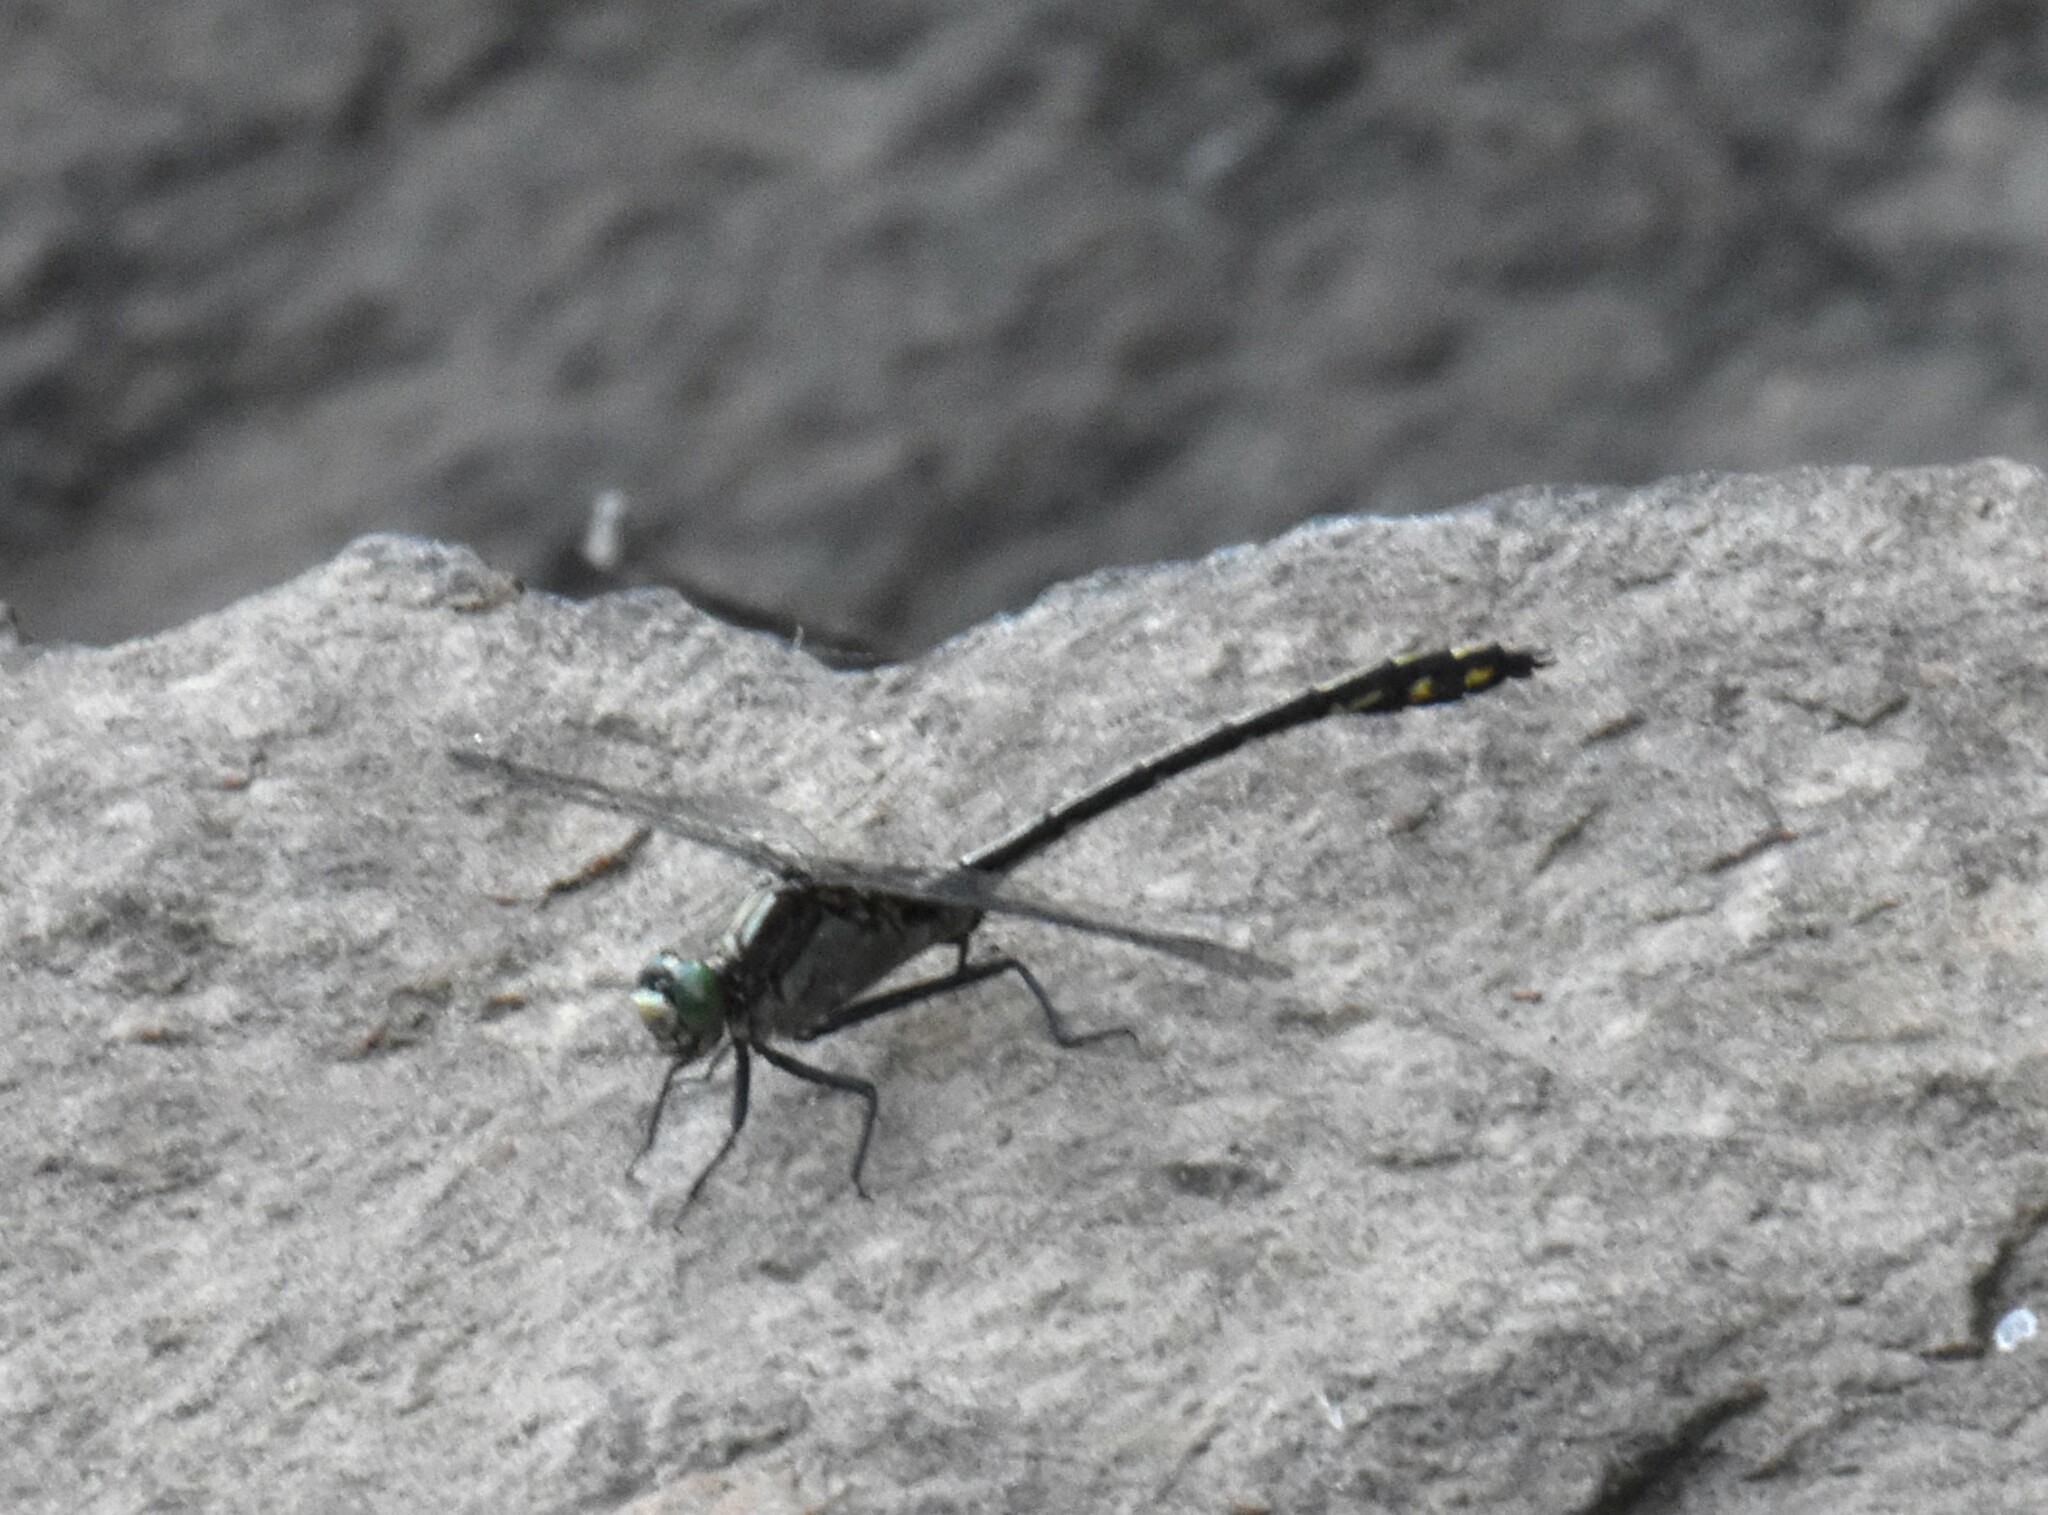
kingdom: Animalia
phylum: Arthropoda
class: Insecta
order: Odonata
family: Gomphidae
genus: Dromogomphus
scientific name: Dromogomphus spinosus
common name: Black-shouldered spinyleg
